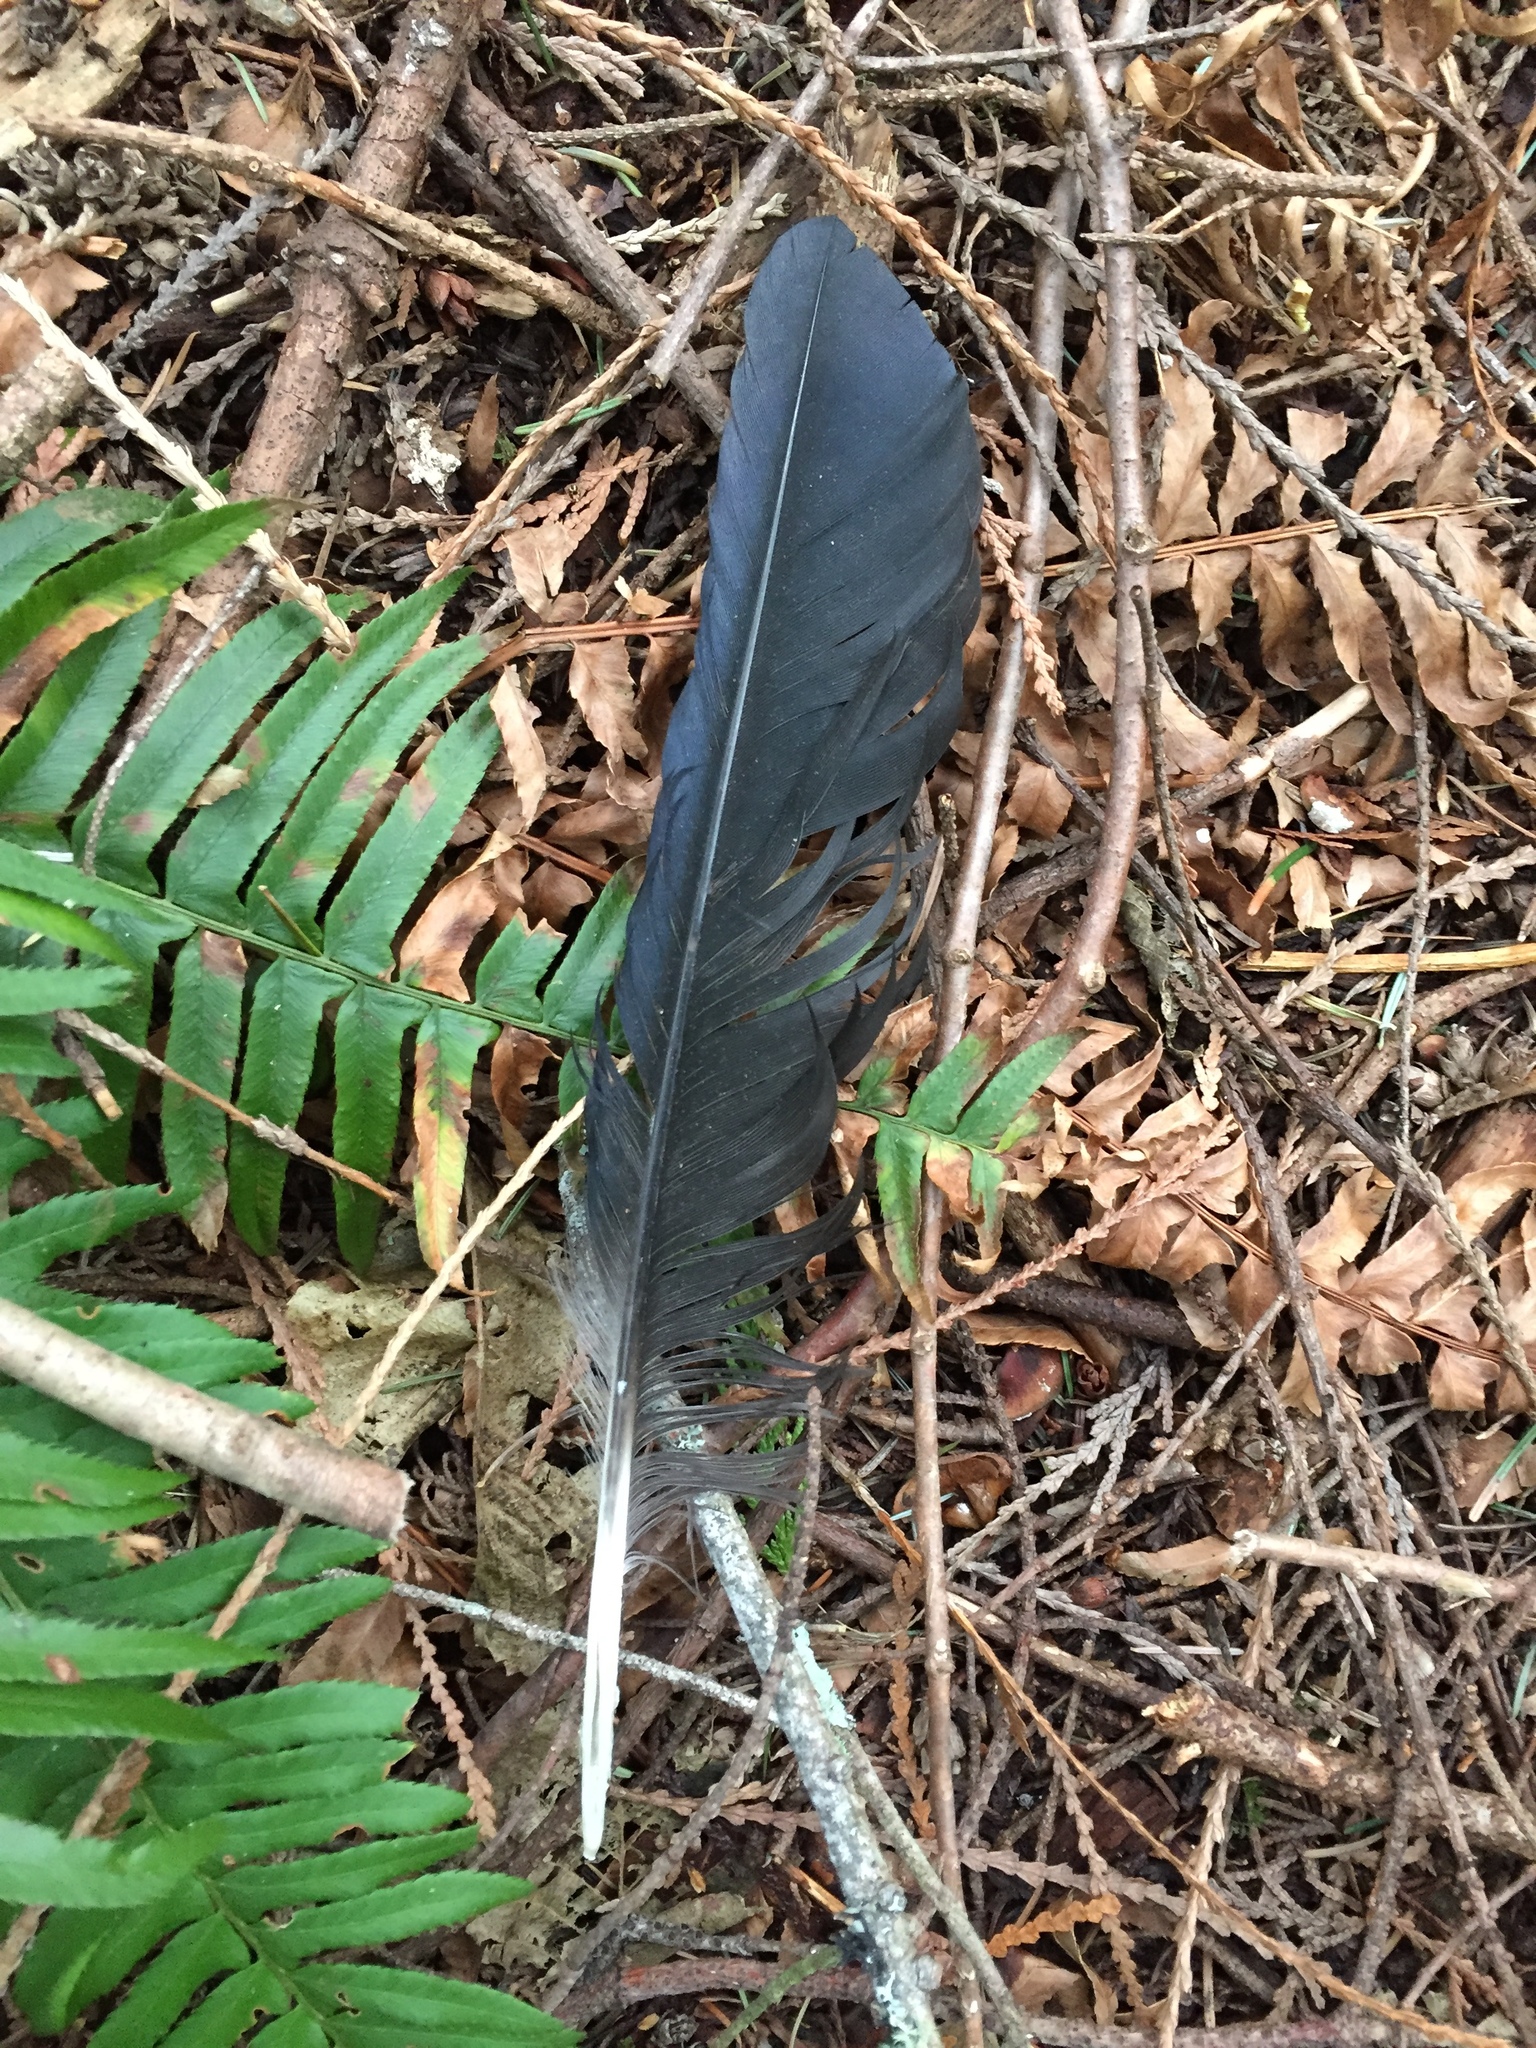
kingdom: Animalia
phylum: Chordata
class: Aves
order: Passeriformes
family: Corvidae
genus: Corvus
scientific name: Corvus corax
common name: Common raven
